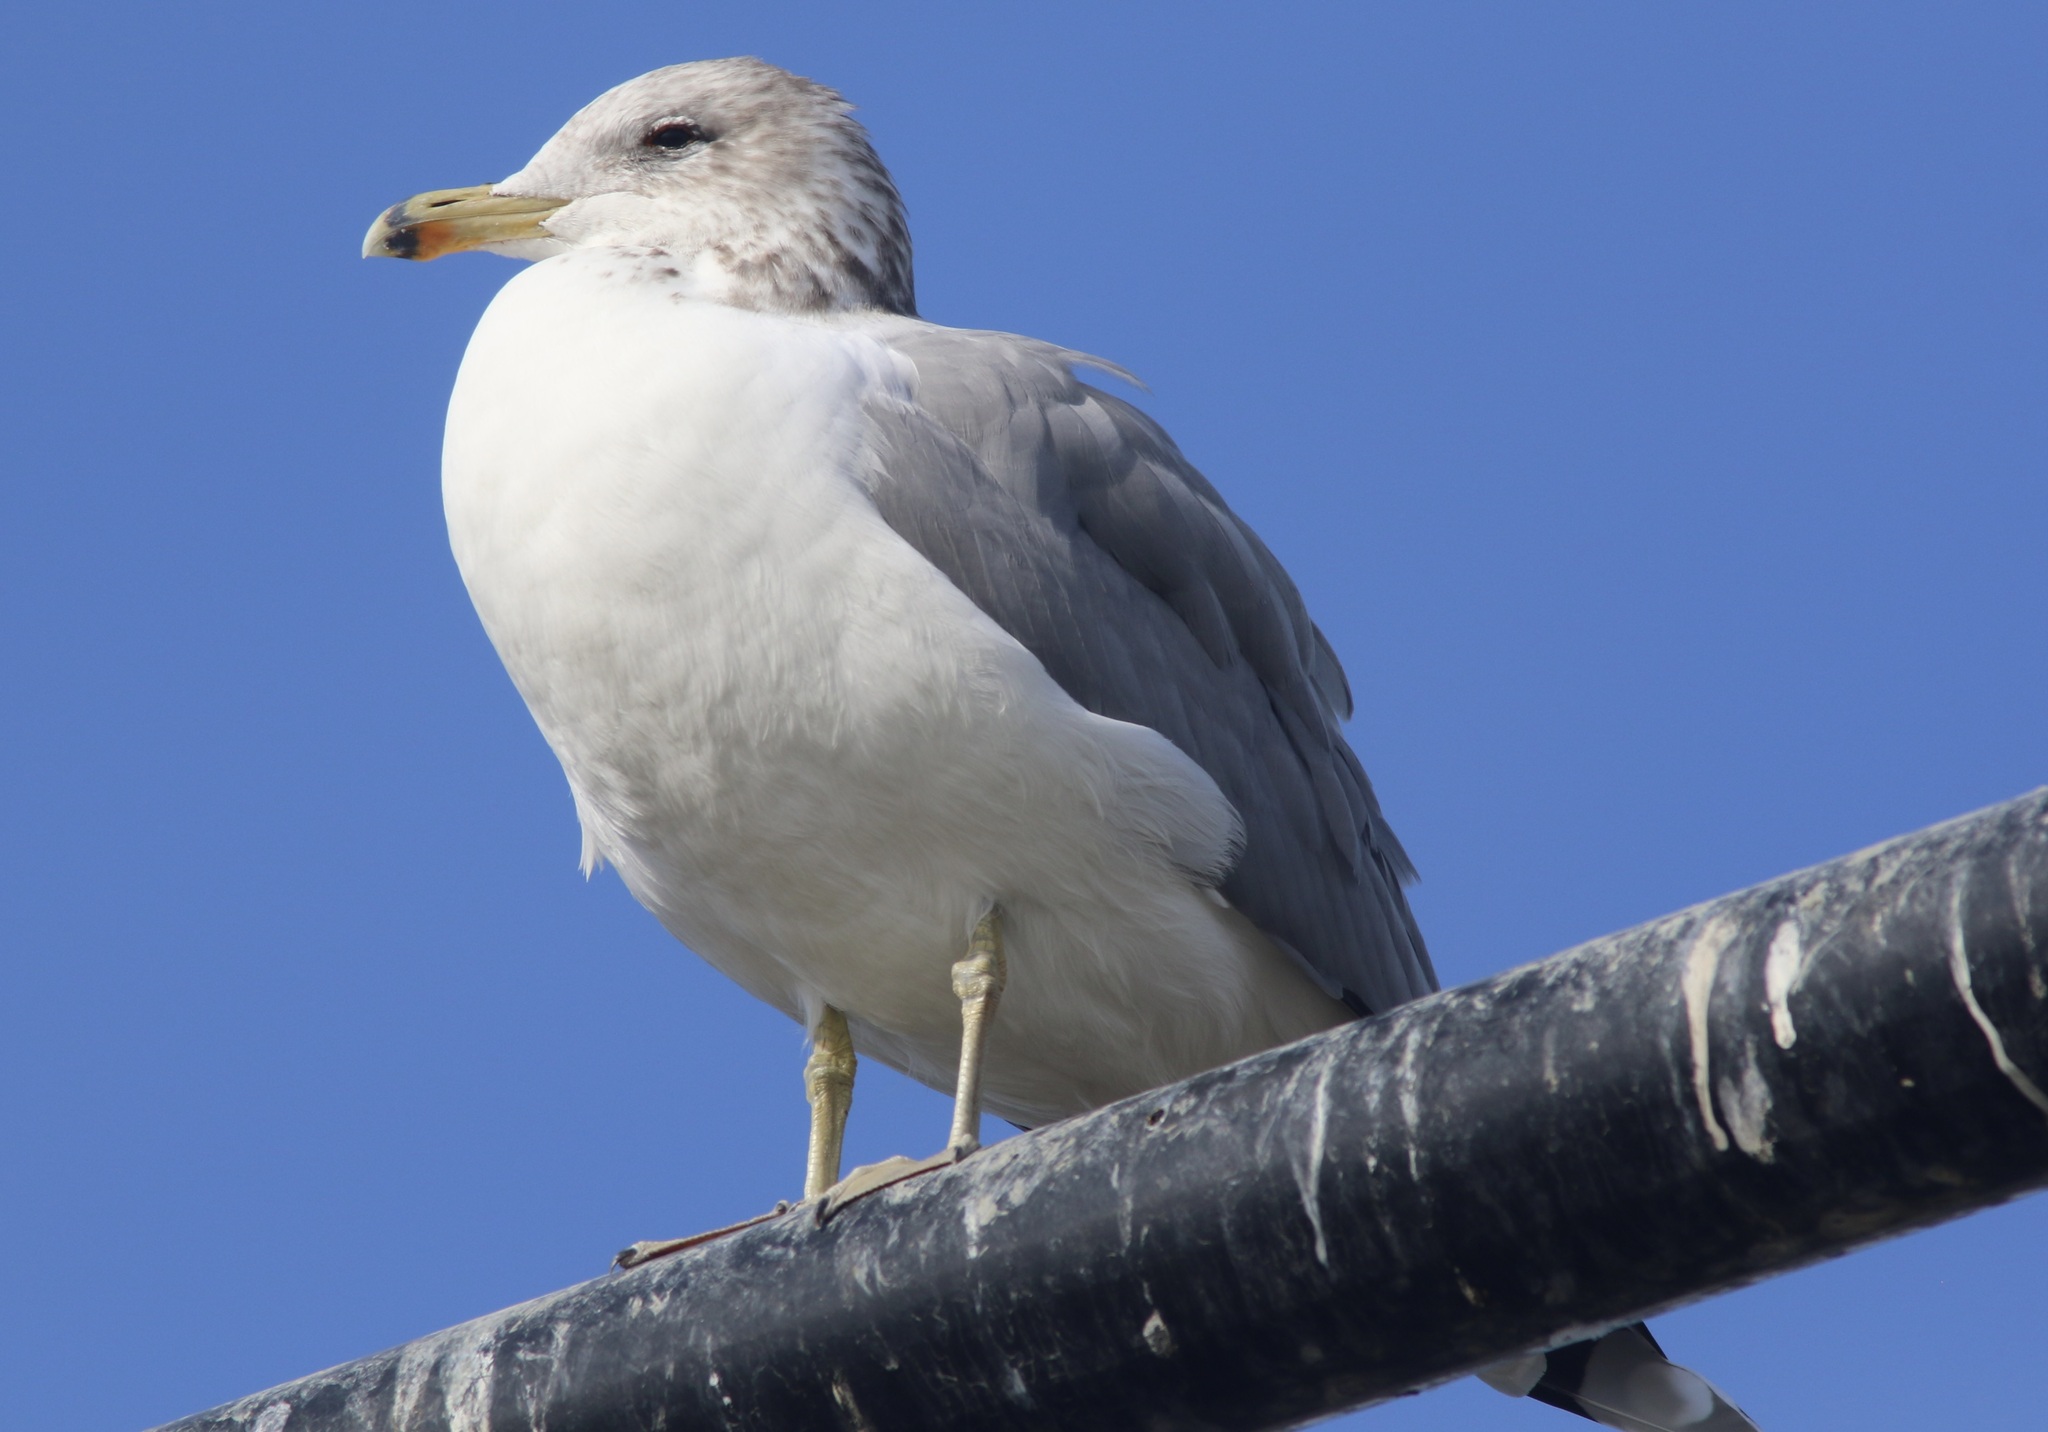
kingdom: Animalia
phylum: Chordata
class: Aves
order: Charadriiformes
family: Laridae
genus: Larus
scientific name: Larus californicus
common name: California gull
